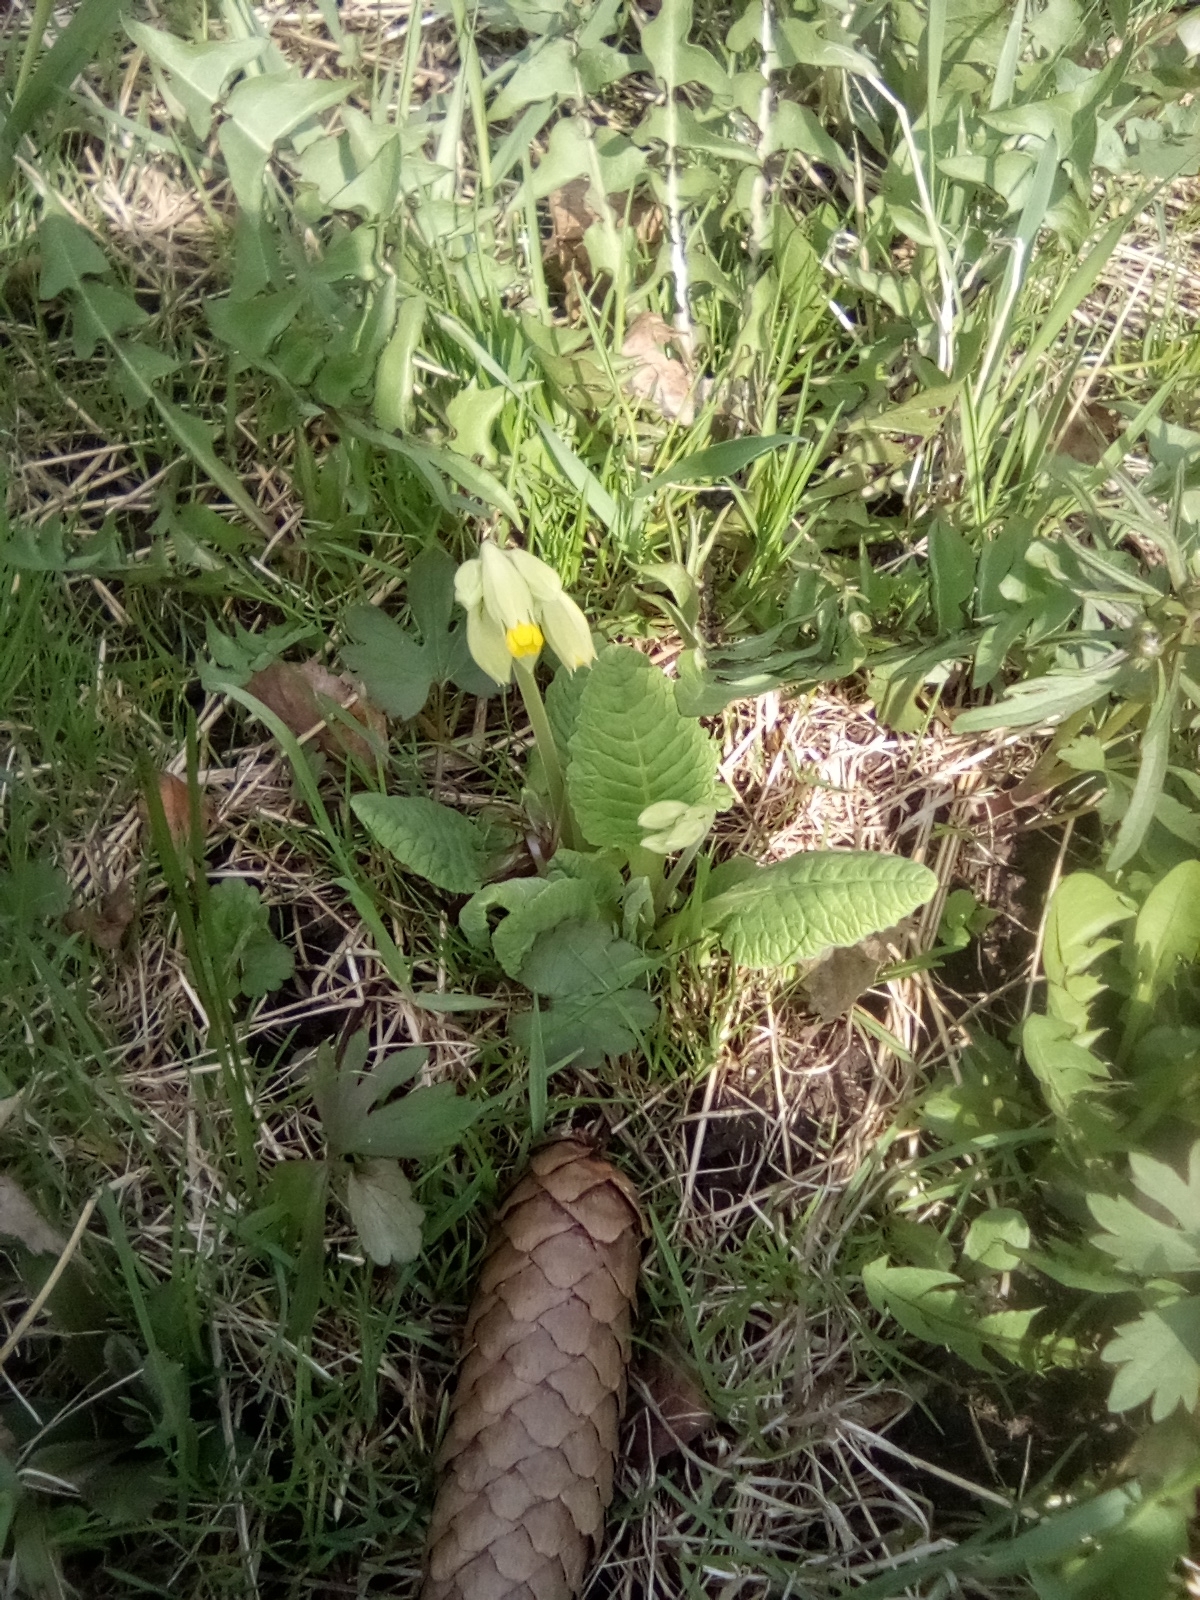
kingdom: Plantae
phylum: Tracheophyta
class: Magnoliopsida
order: Ericales
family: Primulaceae
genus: Primula
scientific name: Primula veris
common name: Cowslip
